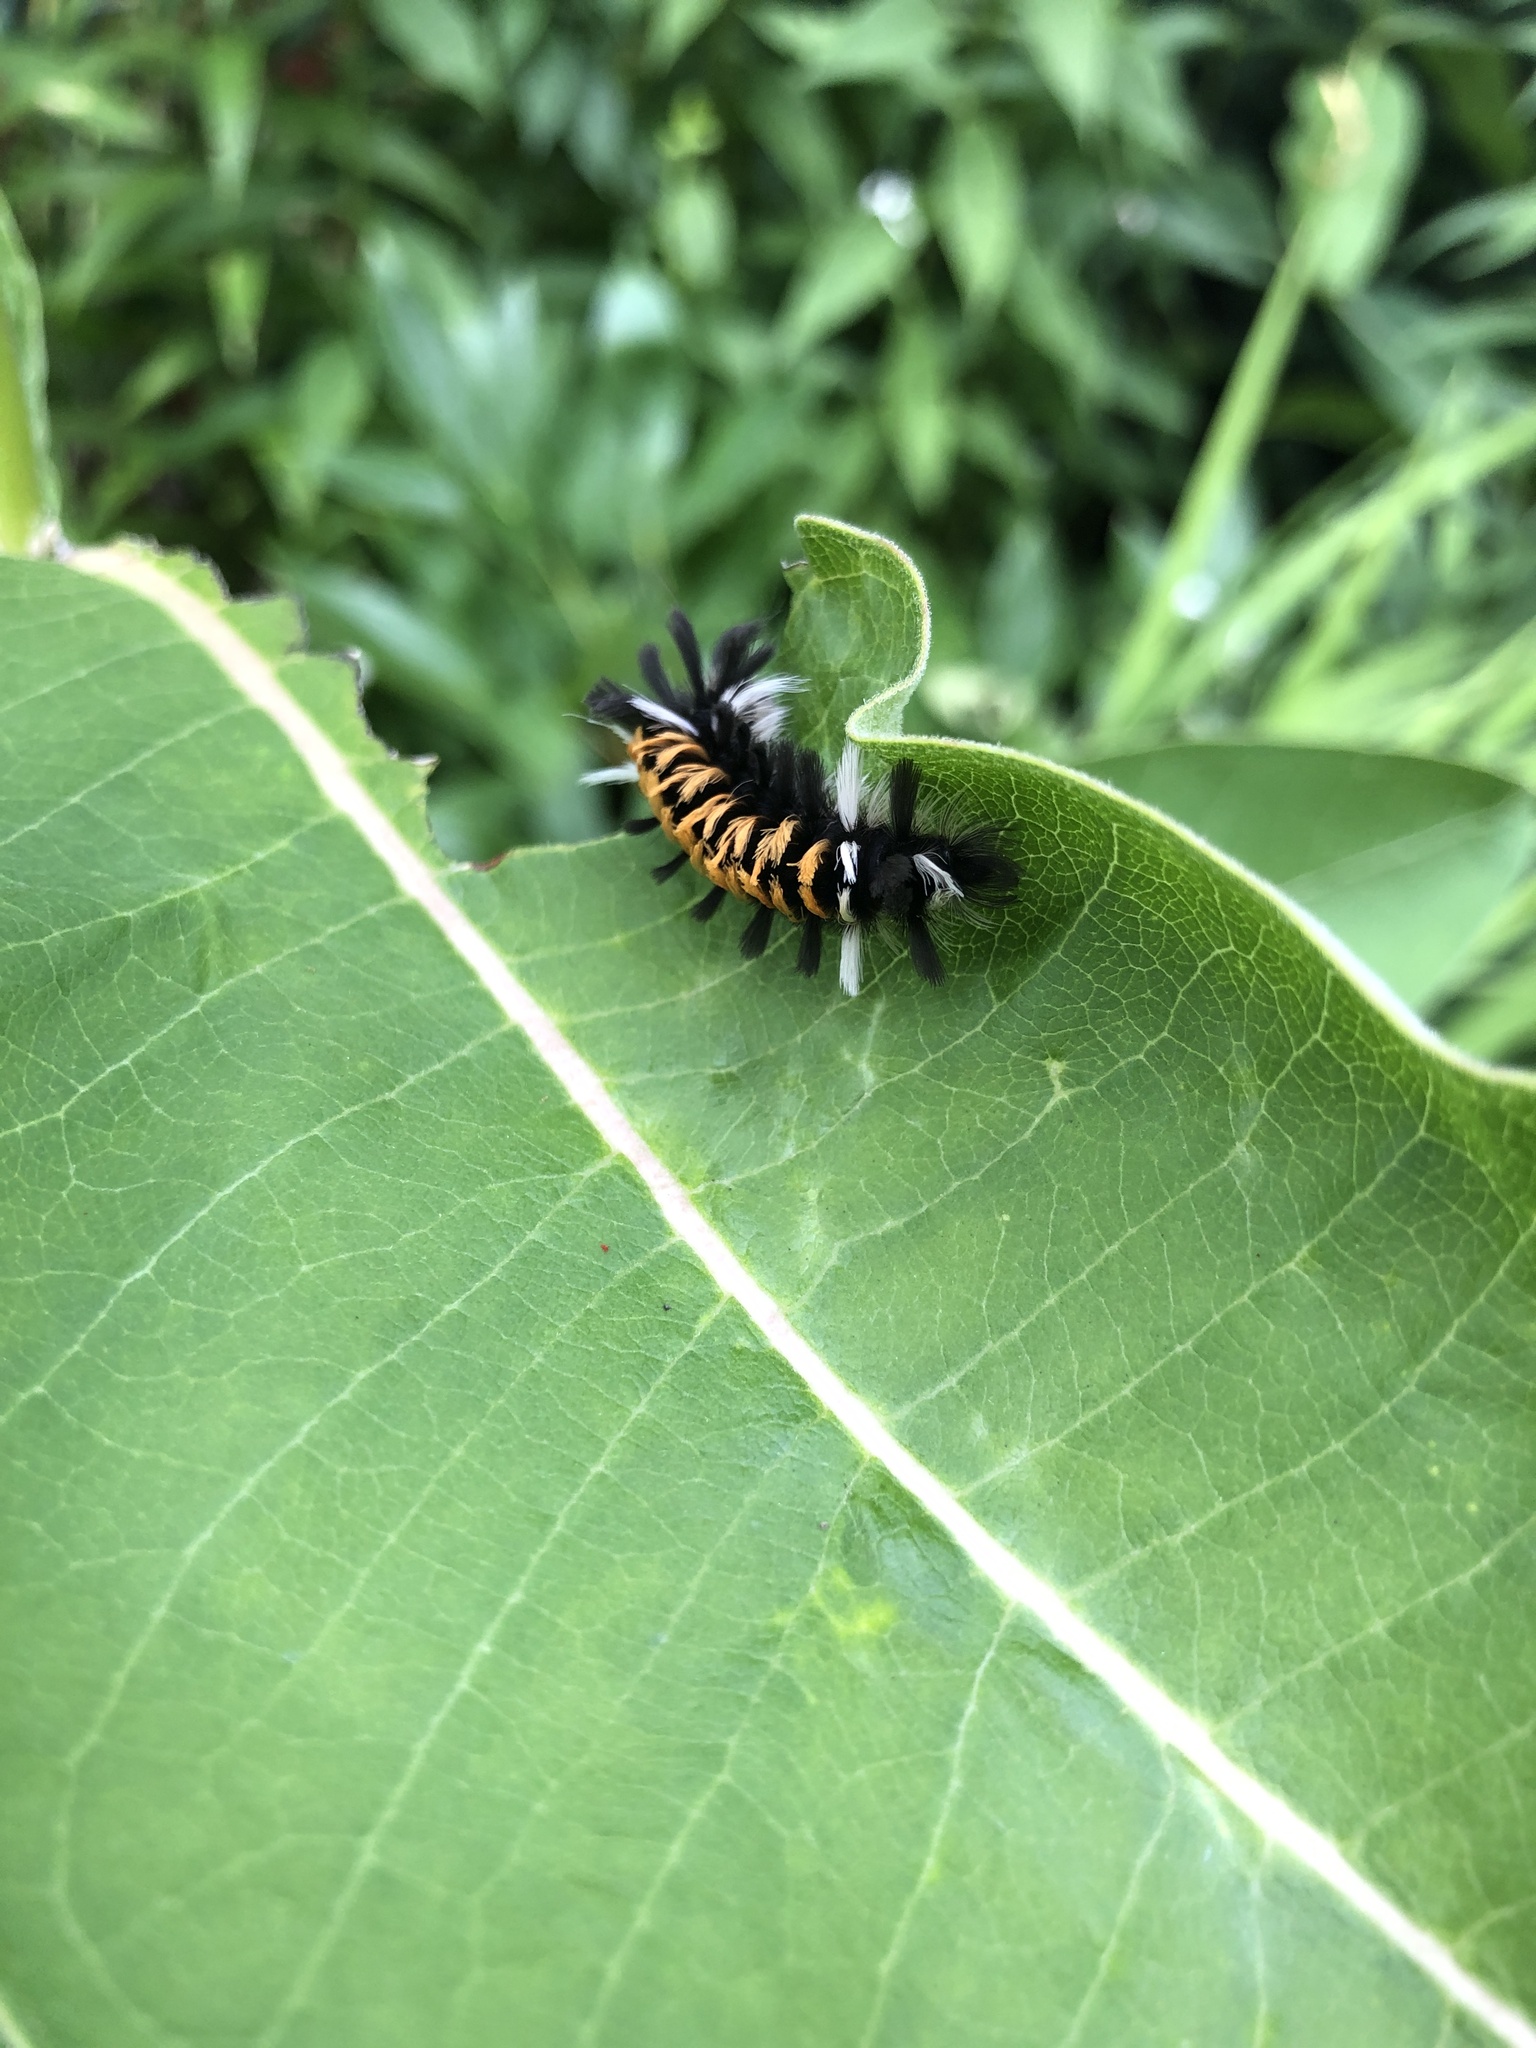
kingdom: Animalia
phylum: Arthropoda
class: Insecta
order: Lepidoptera
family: Erebidae
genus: Euchaetes
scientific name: Euchaetes egle
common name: Milkweed tussock moth
